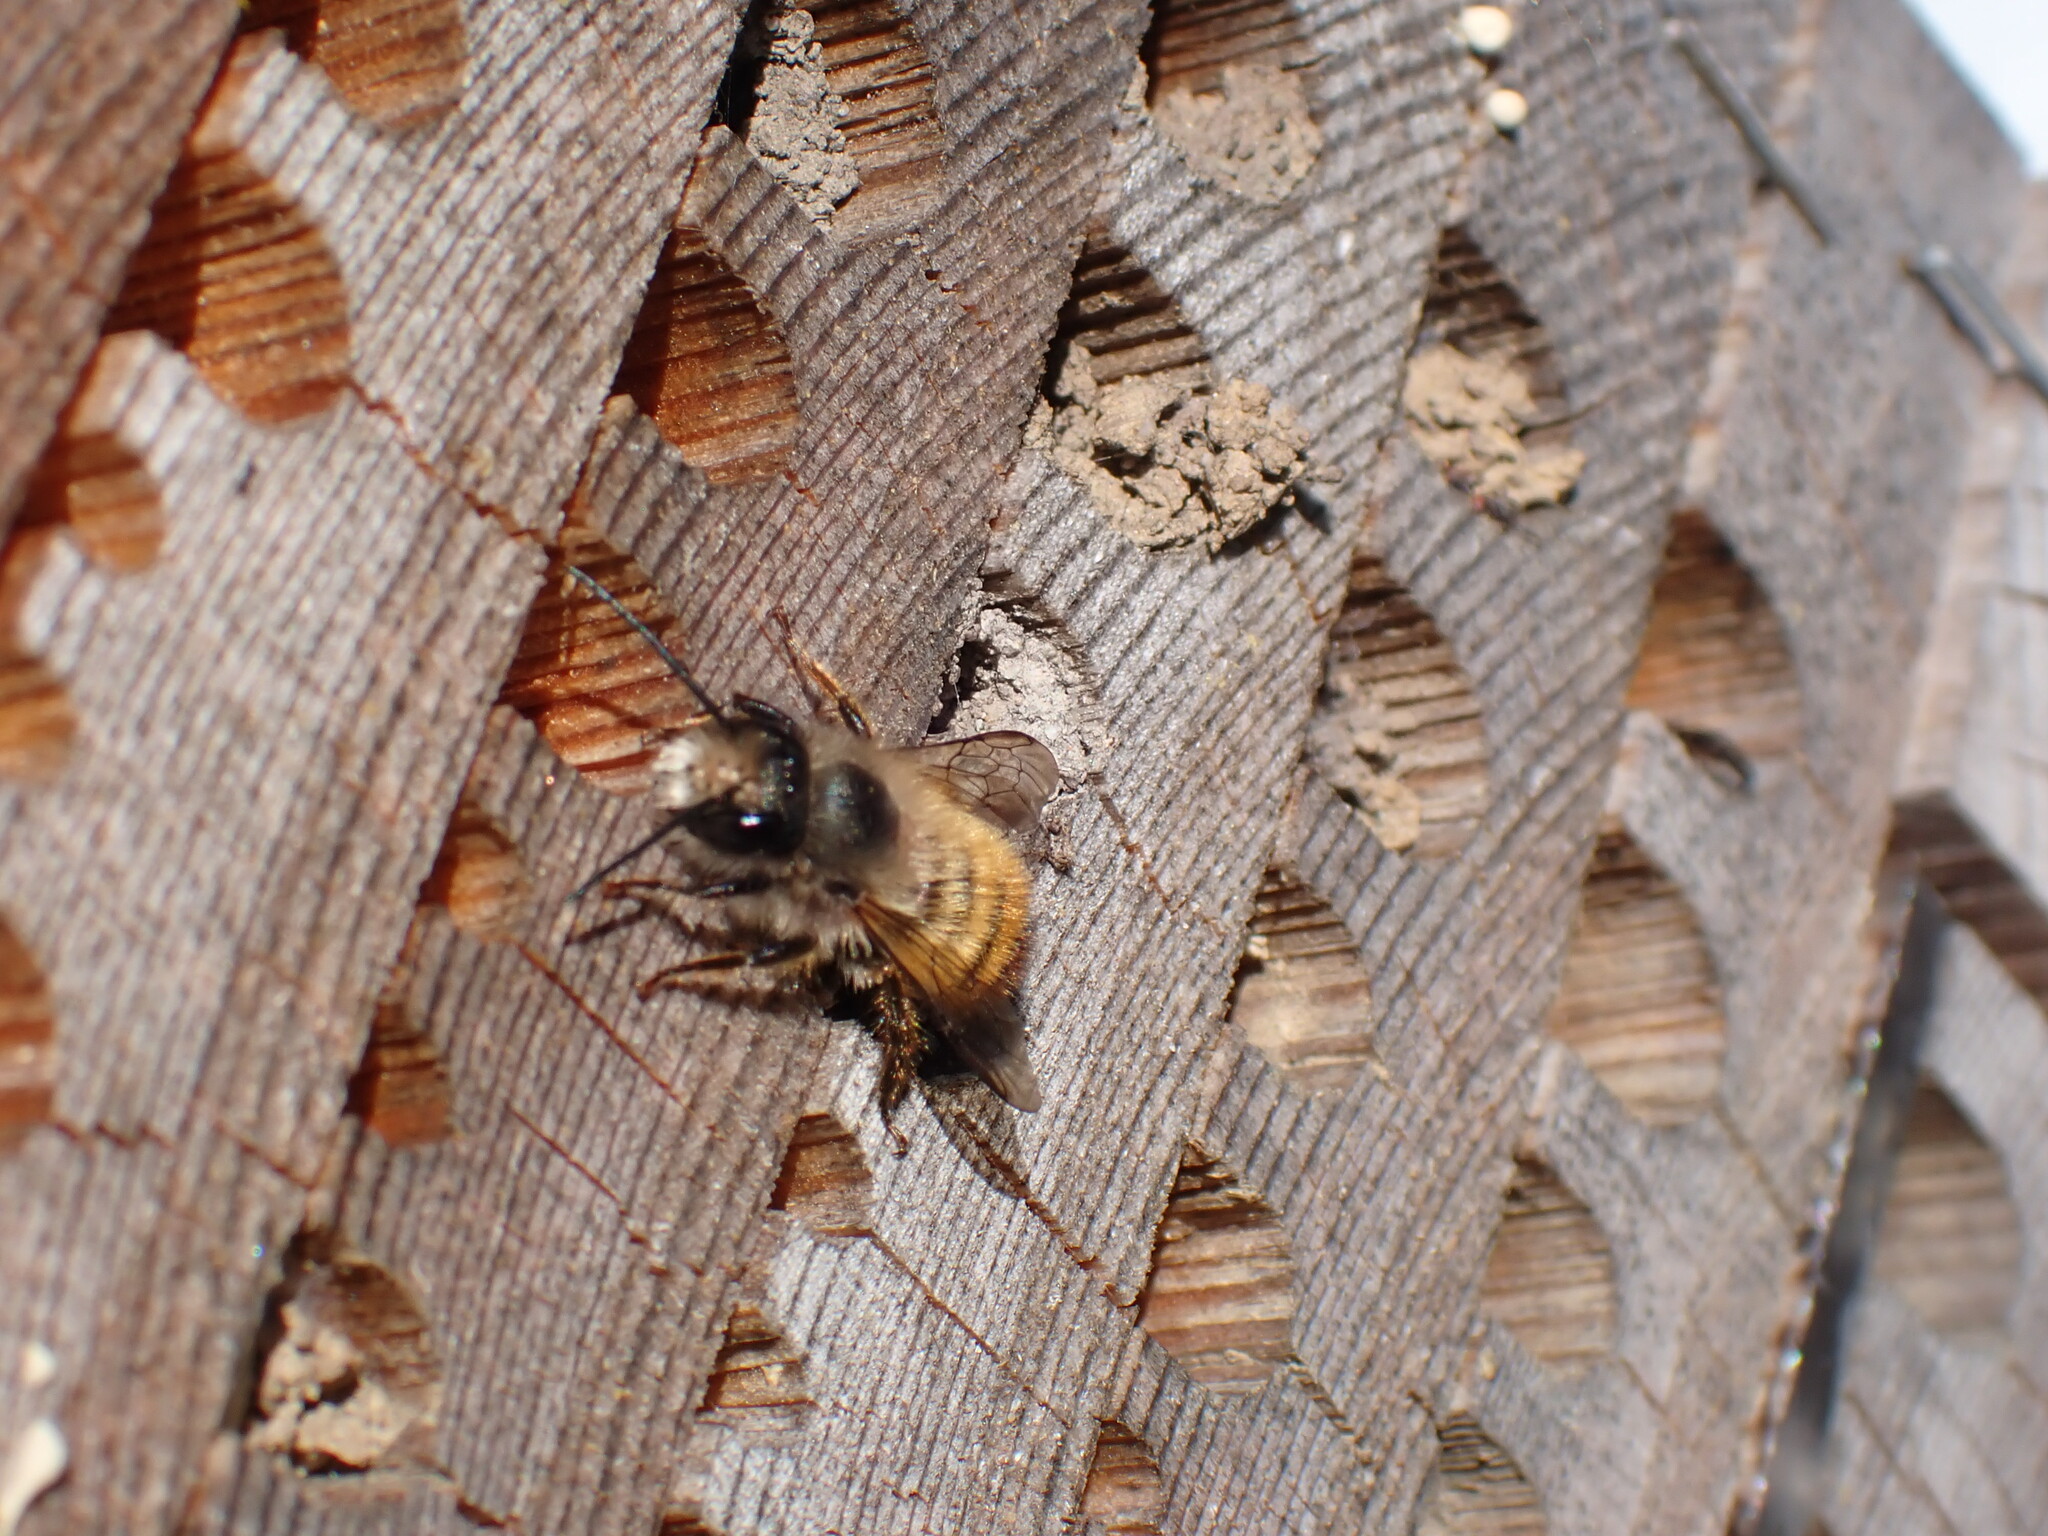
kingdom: Animalia
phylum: Arthropoda
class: Insecta
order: Hymenoptera
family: Megachilidae
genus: Osmia
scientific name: Osmia bicornis
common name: Red mason bee
